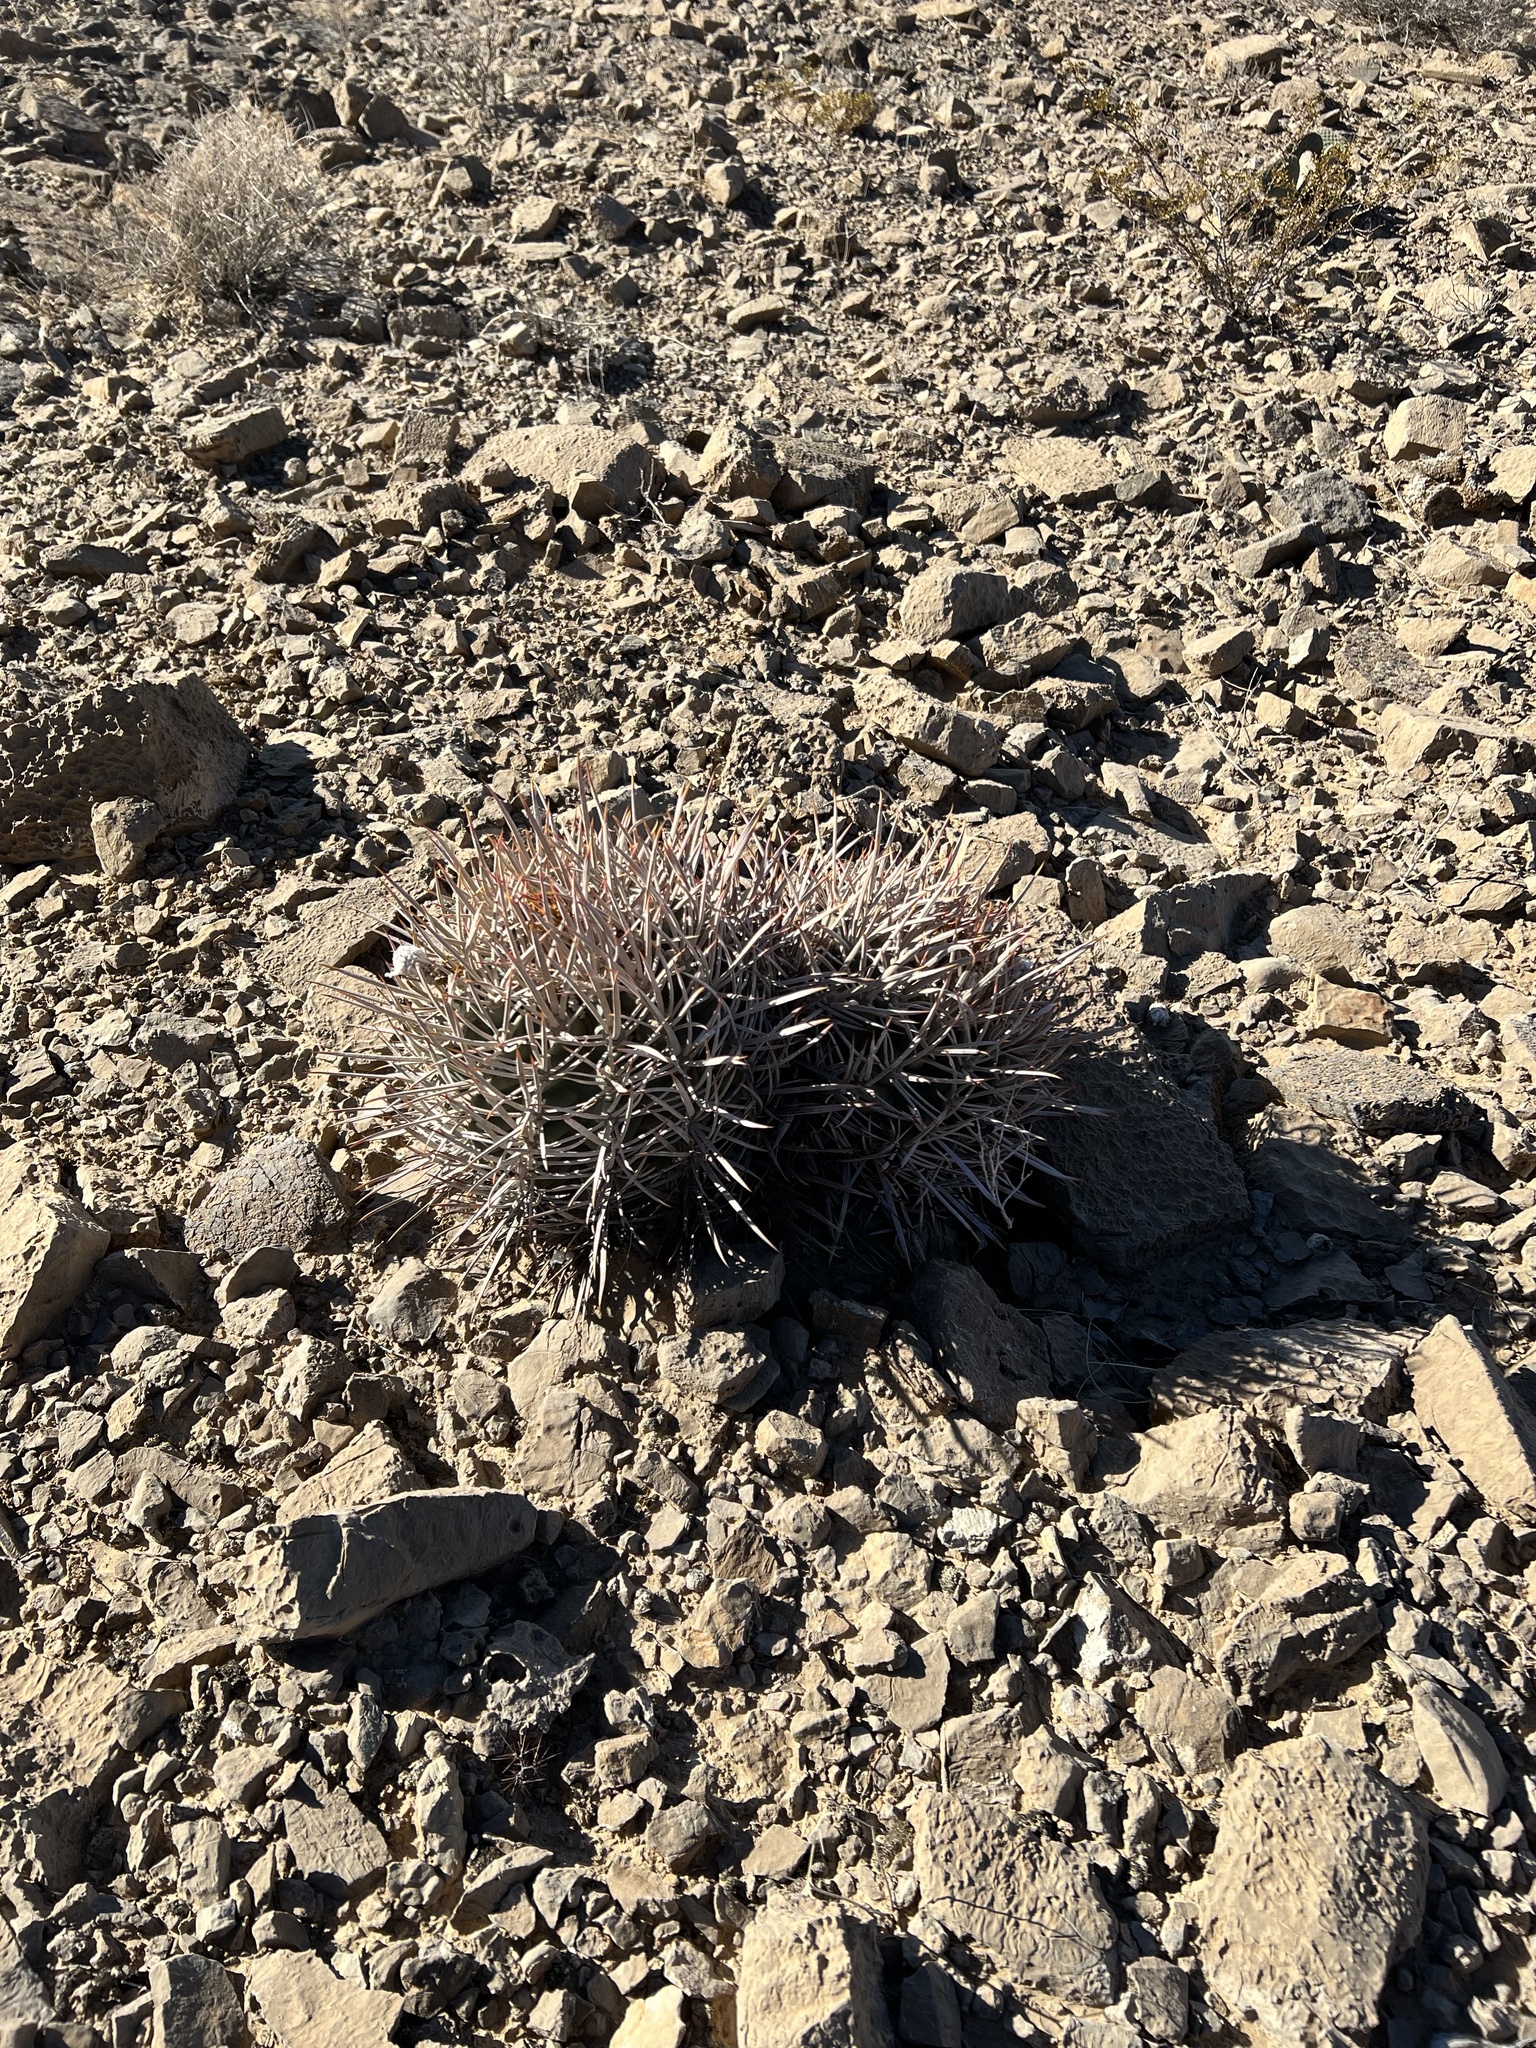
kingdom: Plantae
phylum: Tracheophyta
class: Magnoliopsida
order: Caryophyllales
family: Cactaceae
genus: Echinocactus
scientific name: Echinocactus polycephalus
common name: Cottontop cactus
